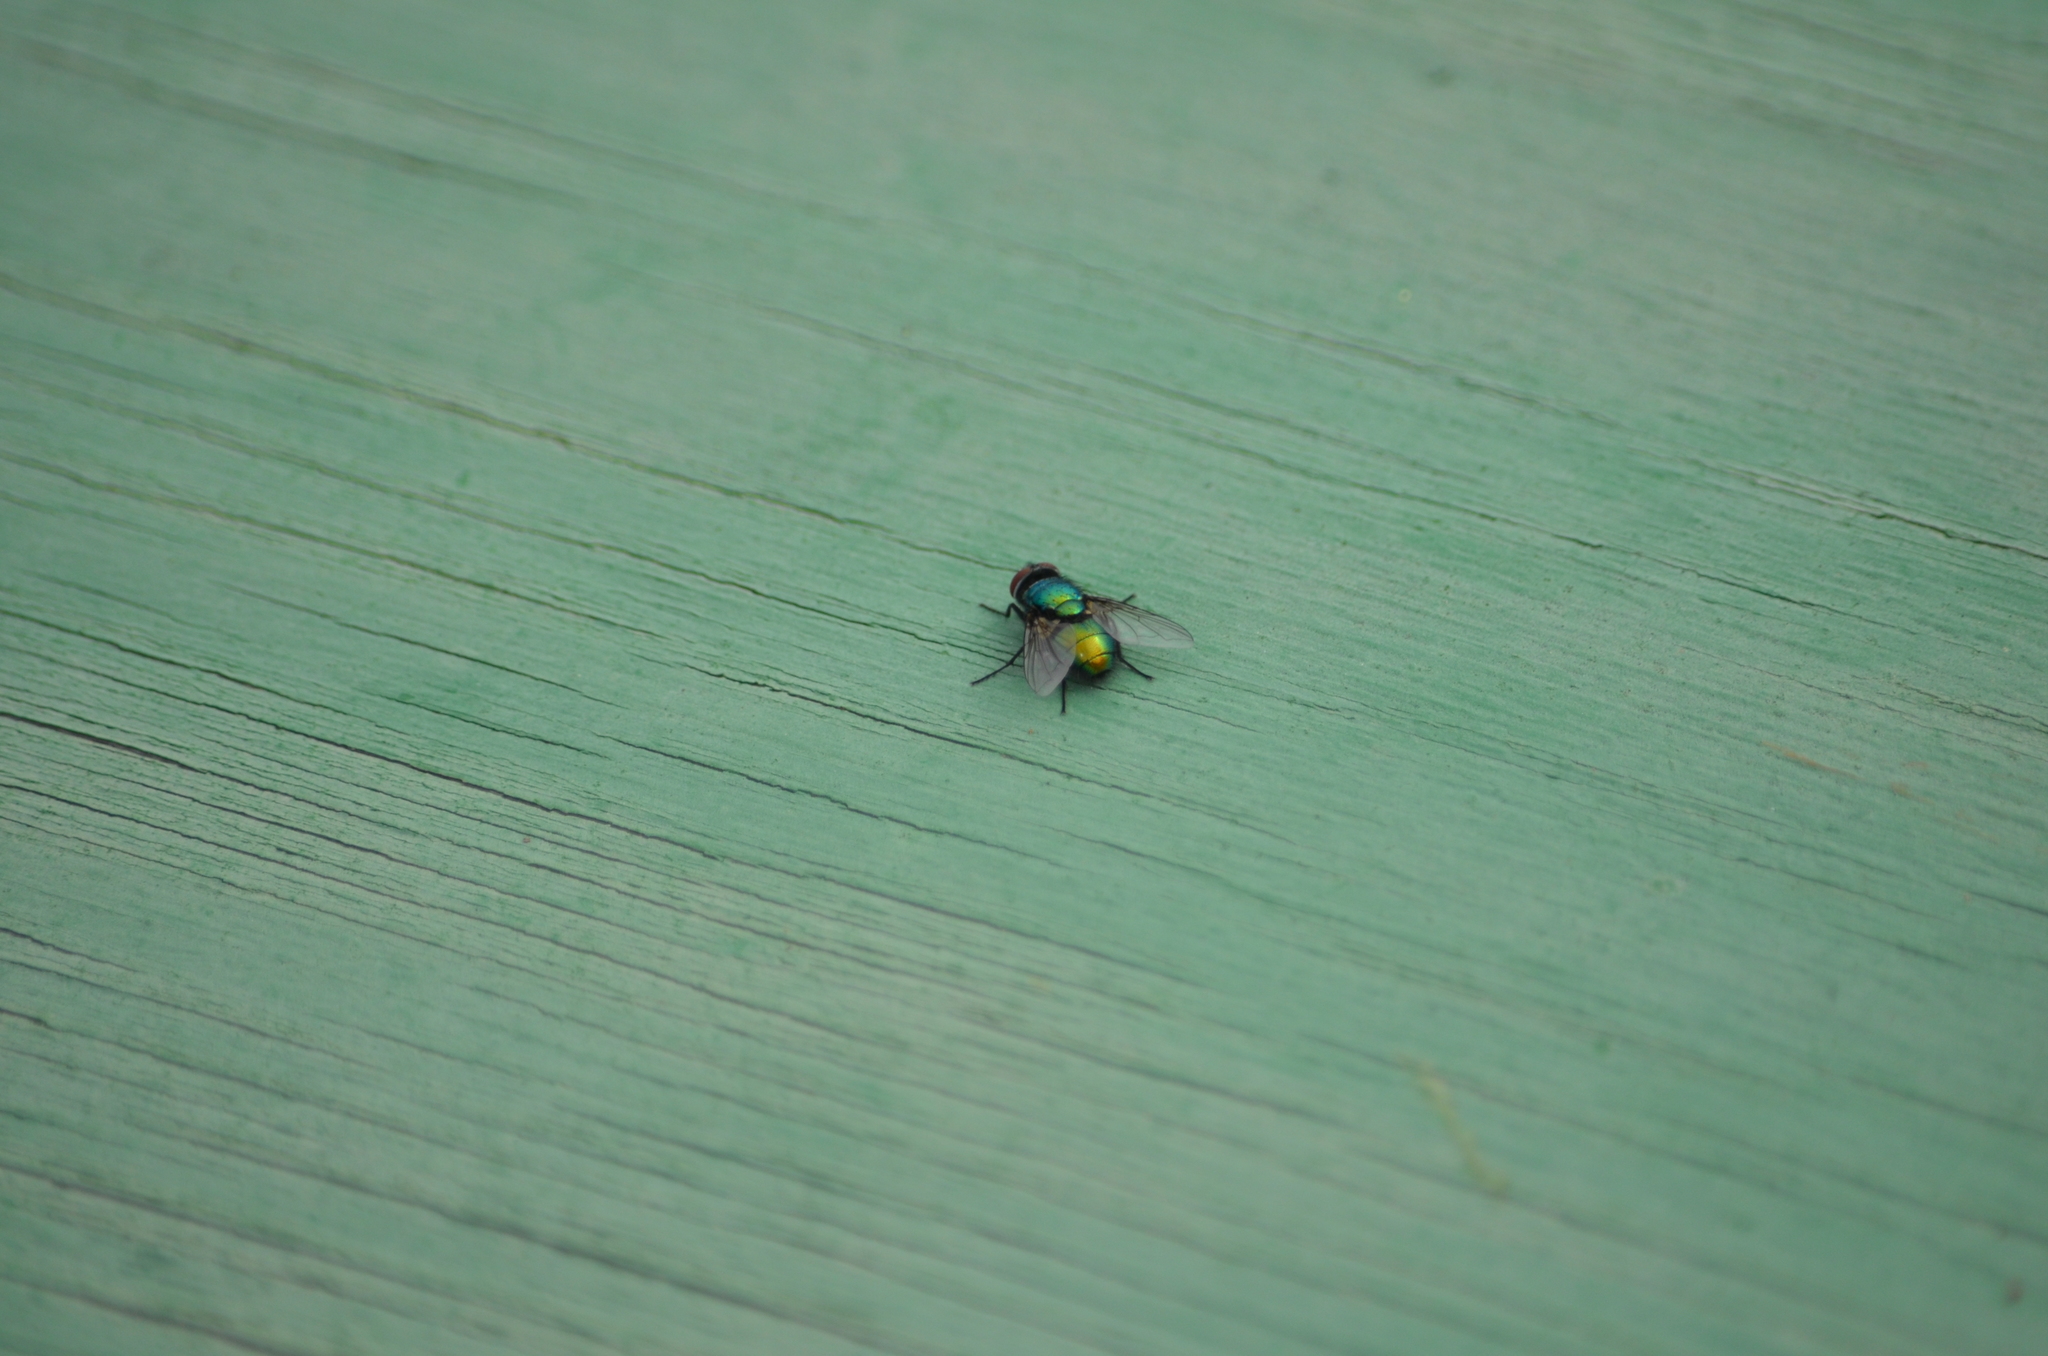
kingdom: Animalia
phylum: Arthropoda
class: Insecta
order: Diptera
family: Calliphoridae
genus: Lucilia
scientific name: Lucilia sericata
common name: Blow fly
